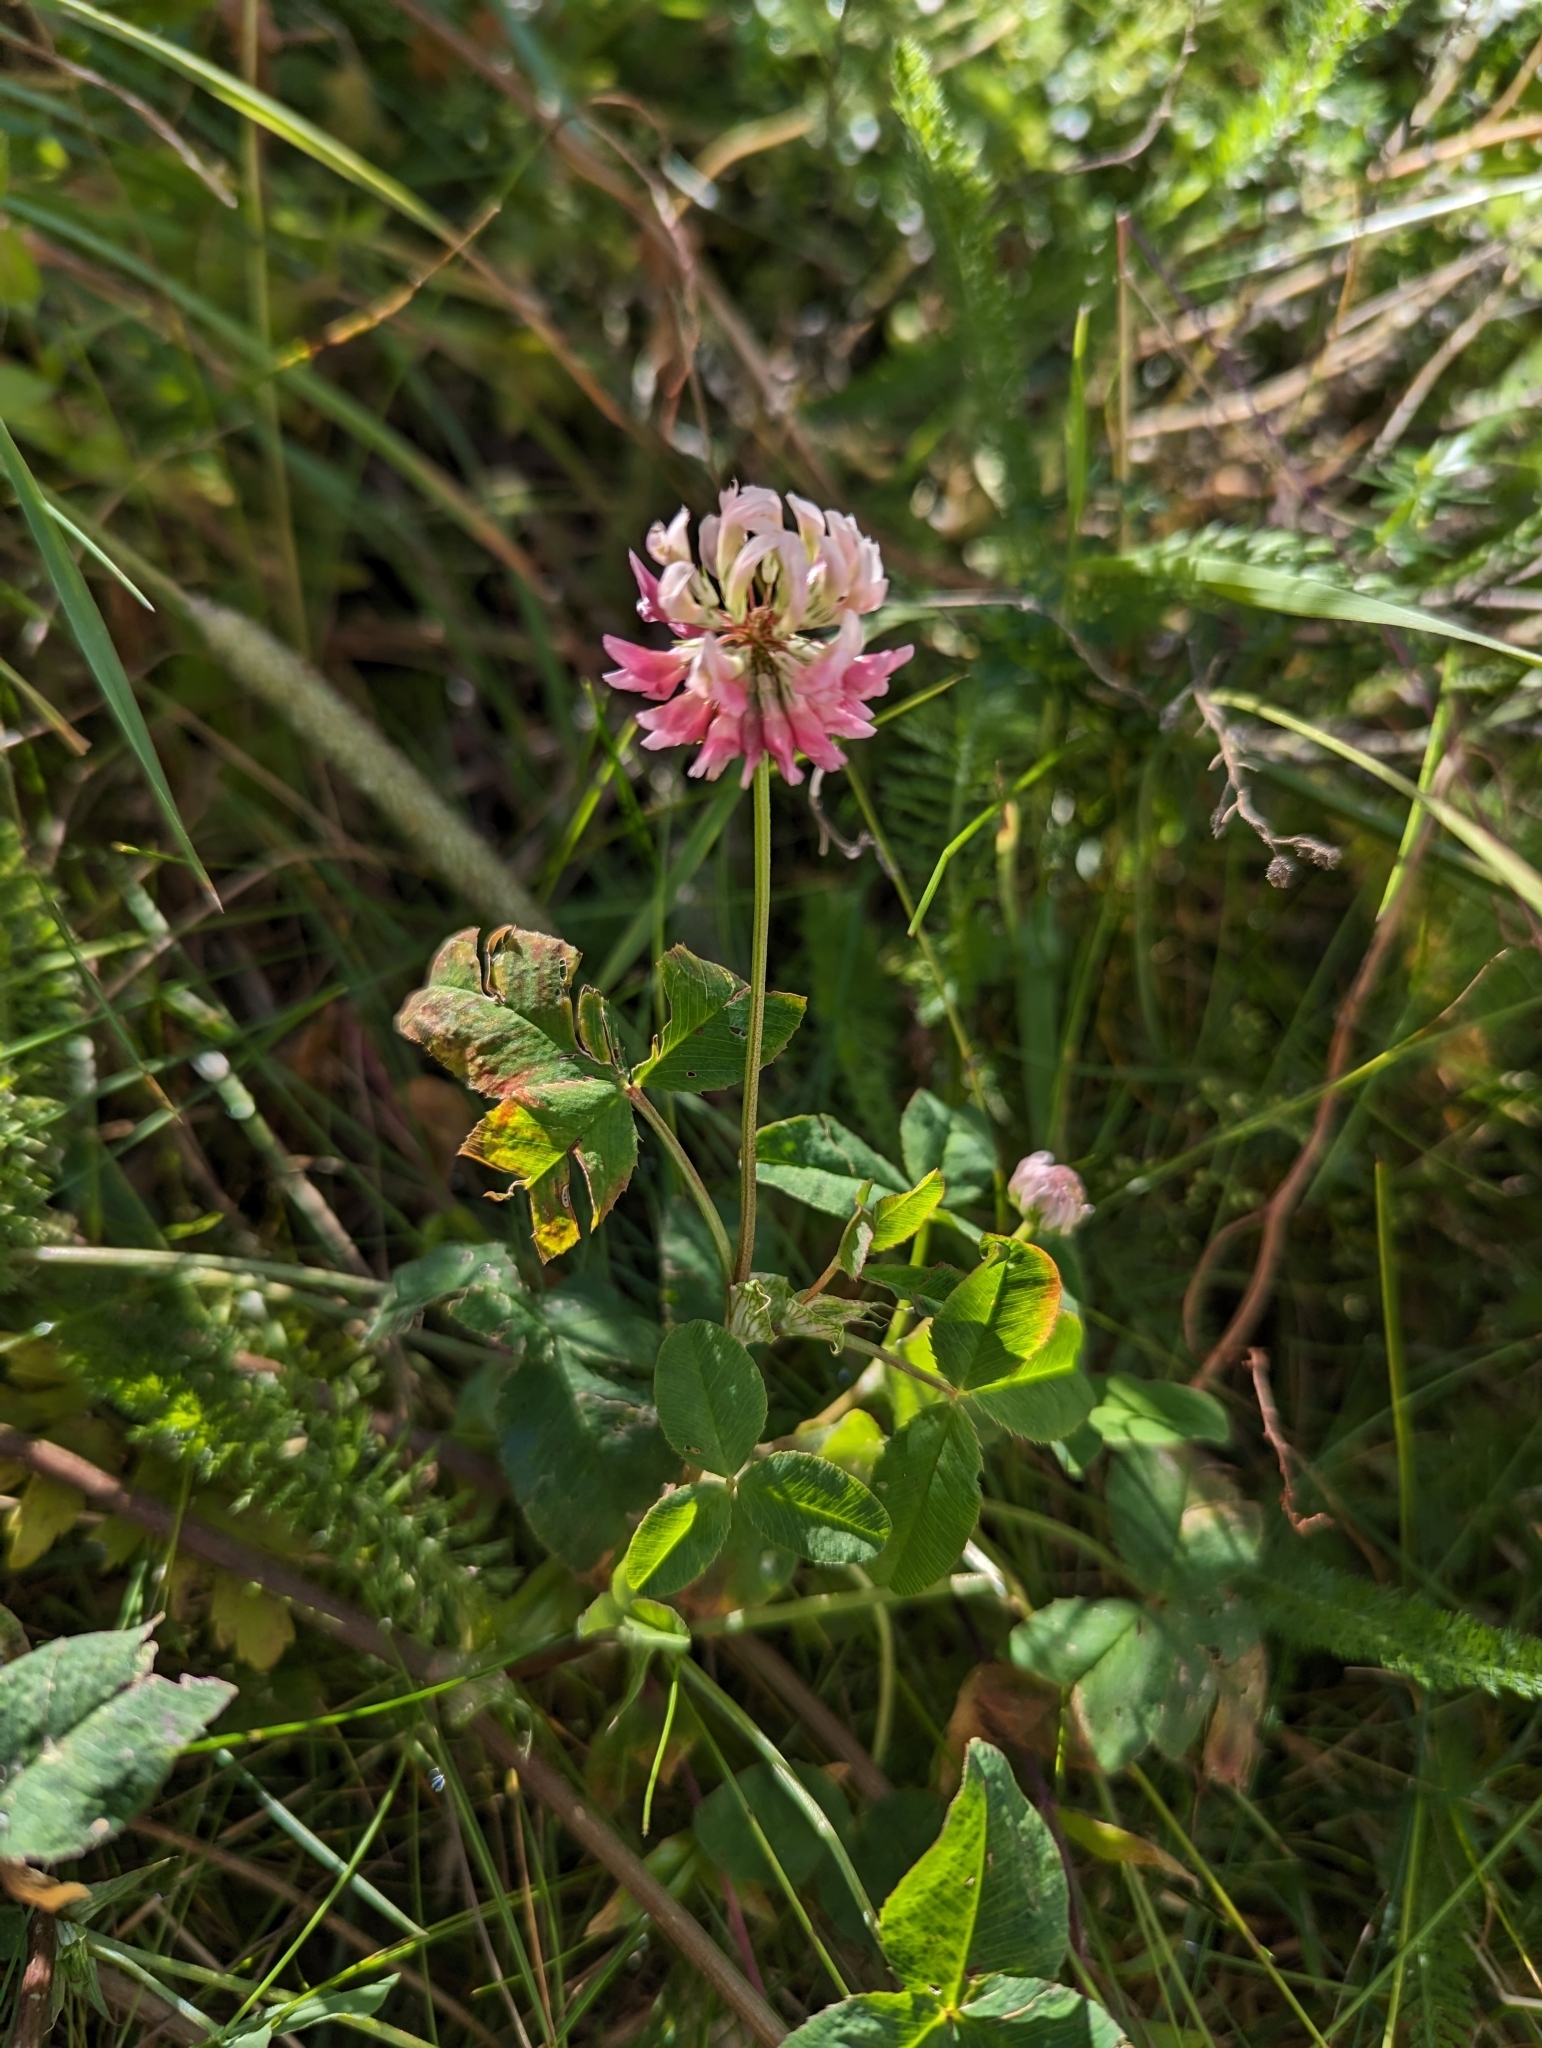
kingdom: Plantae
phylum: Tracheophyta
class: Magnoliopsida
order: Fabales
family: Fabaceae
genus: Trifolium
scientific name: Trifolium hybridum
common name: Alsike clover
